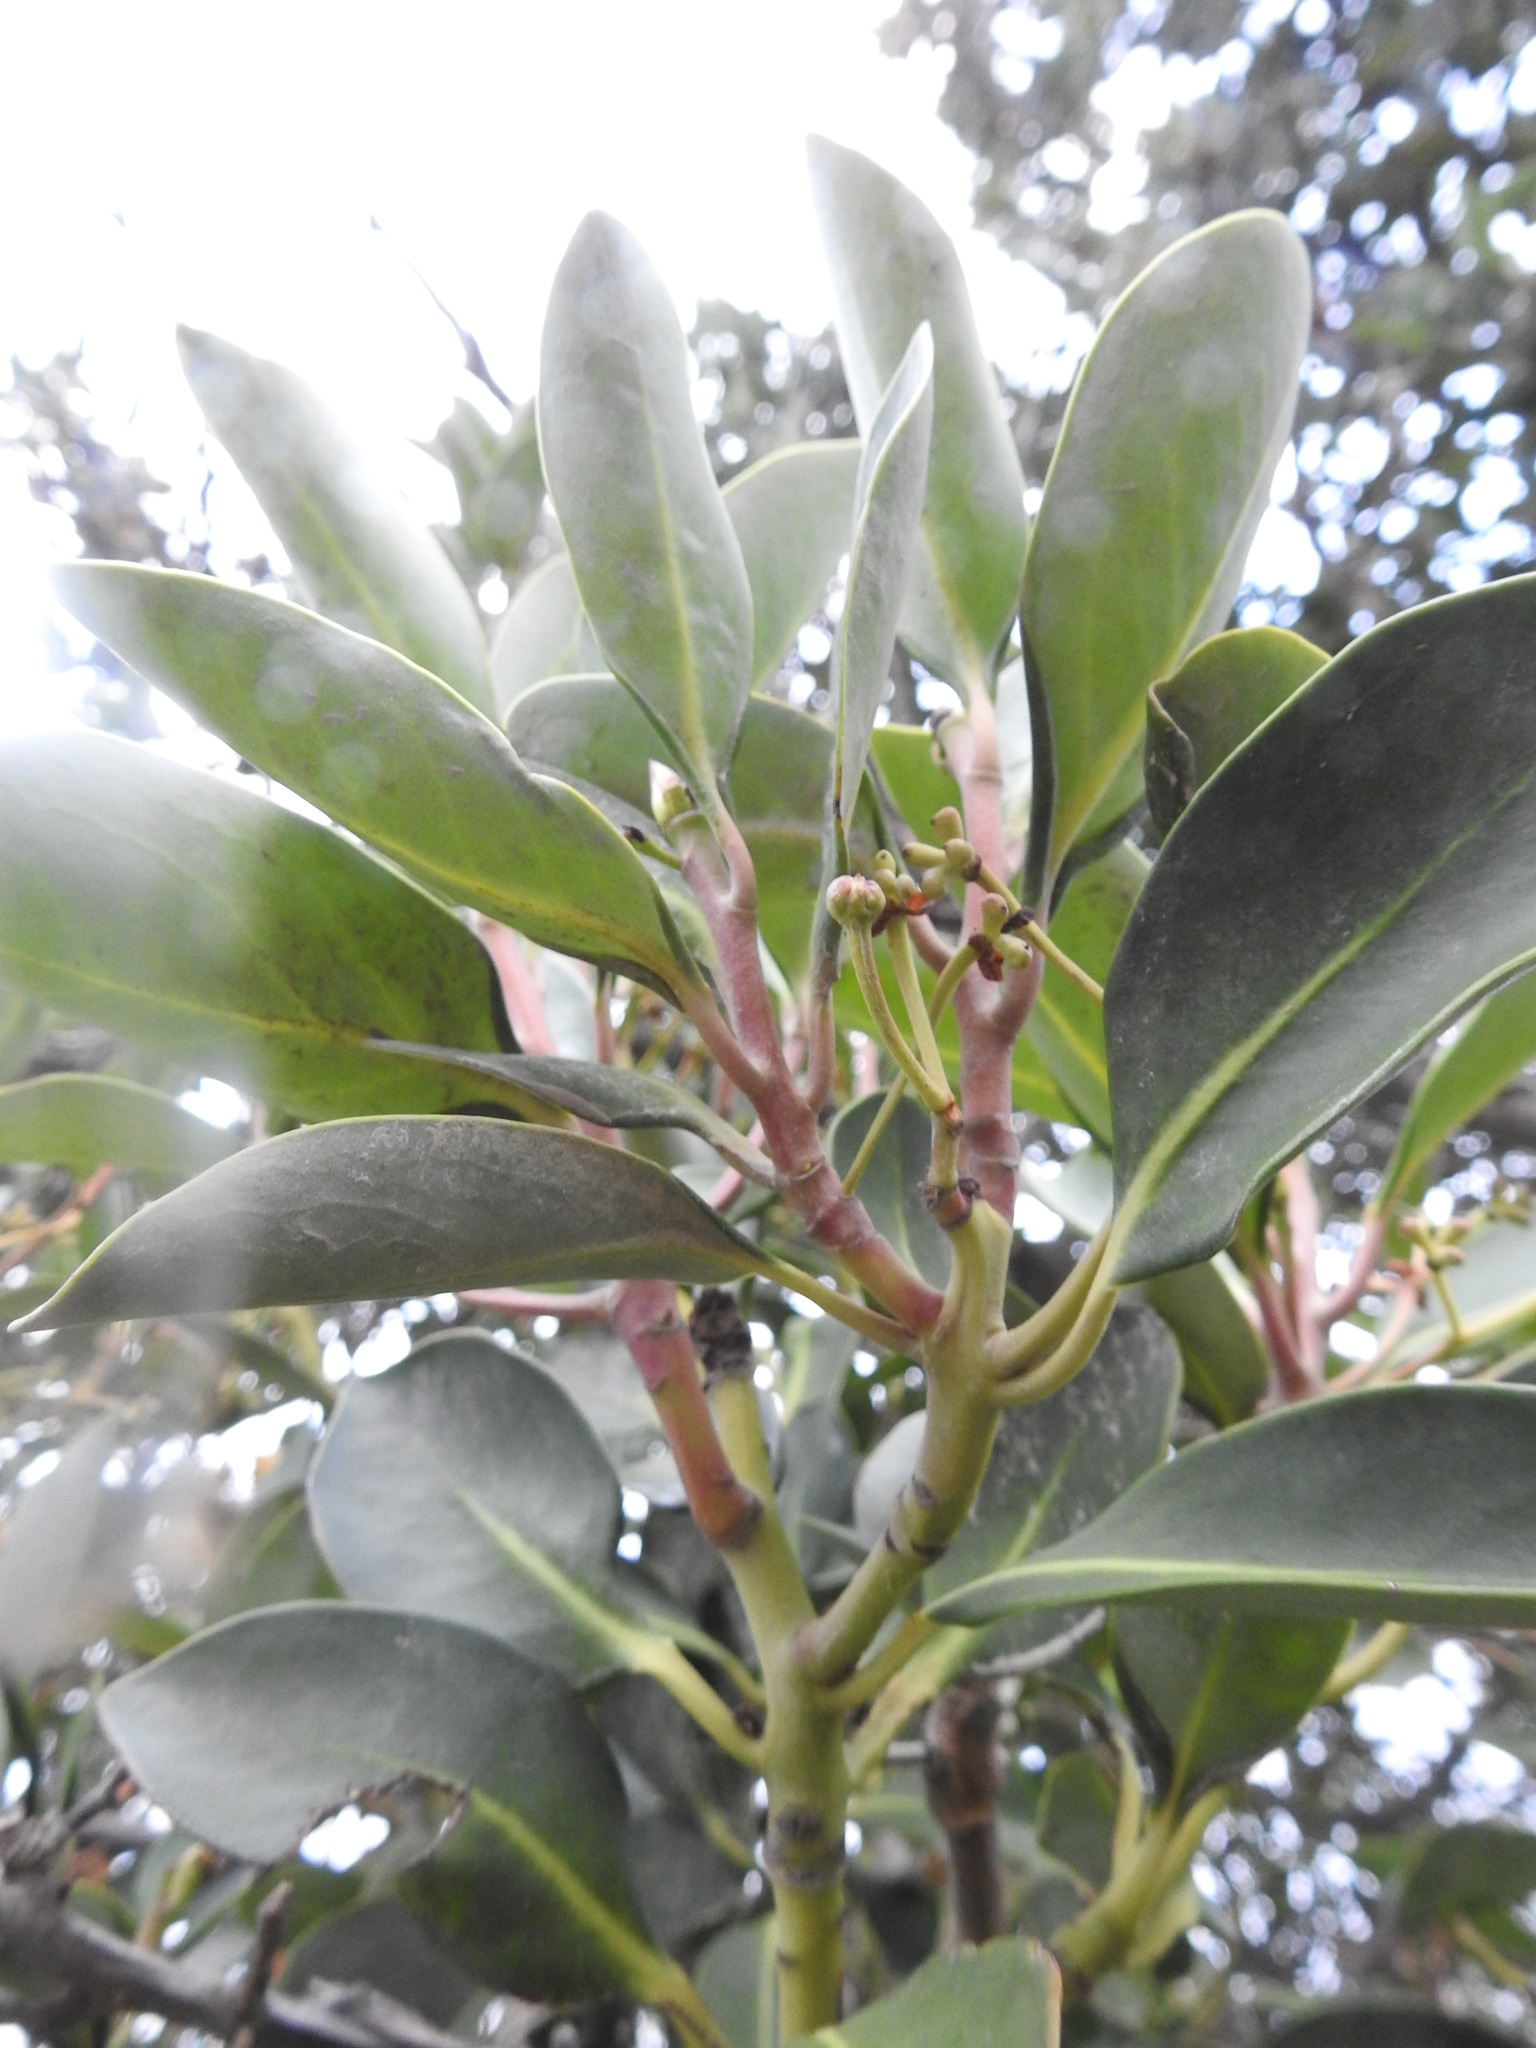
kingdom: Plantae
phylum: Tracheophyta
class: Magnoliopsida
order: Canellales
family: Winteraceae
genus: Drimys
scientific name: Drimys winteri
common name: Winter's-bark
